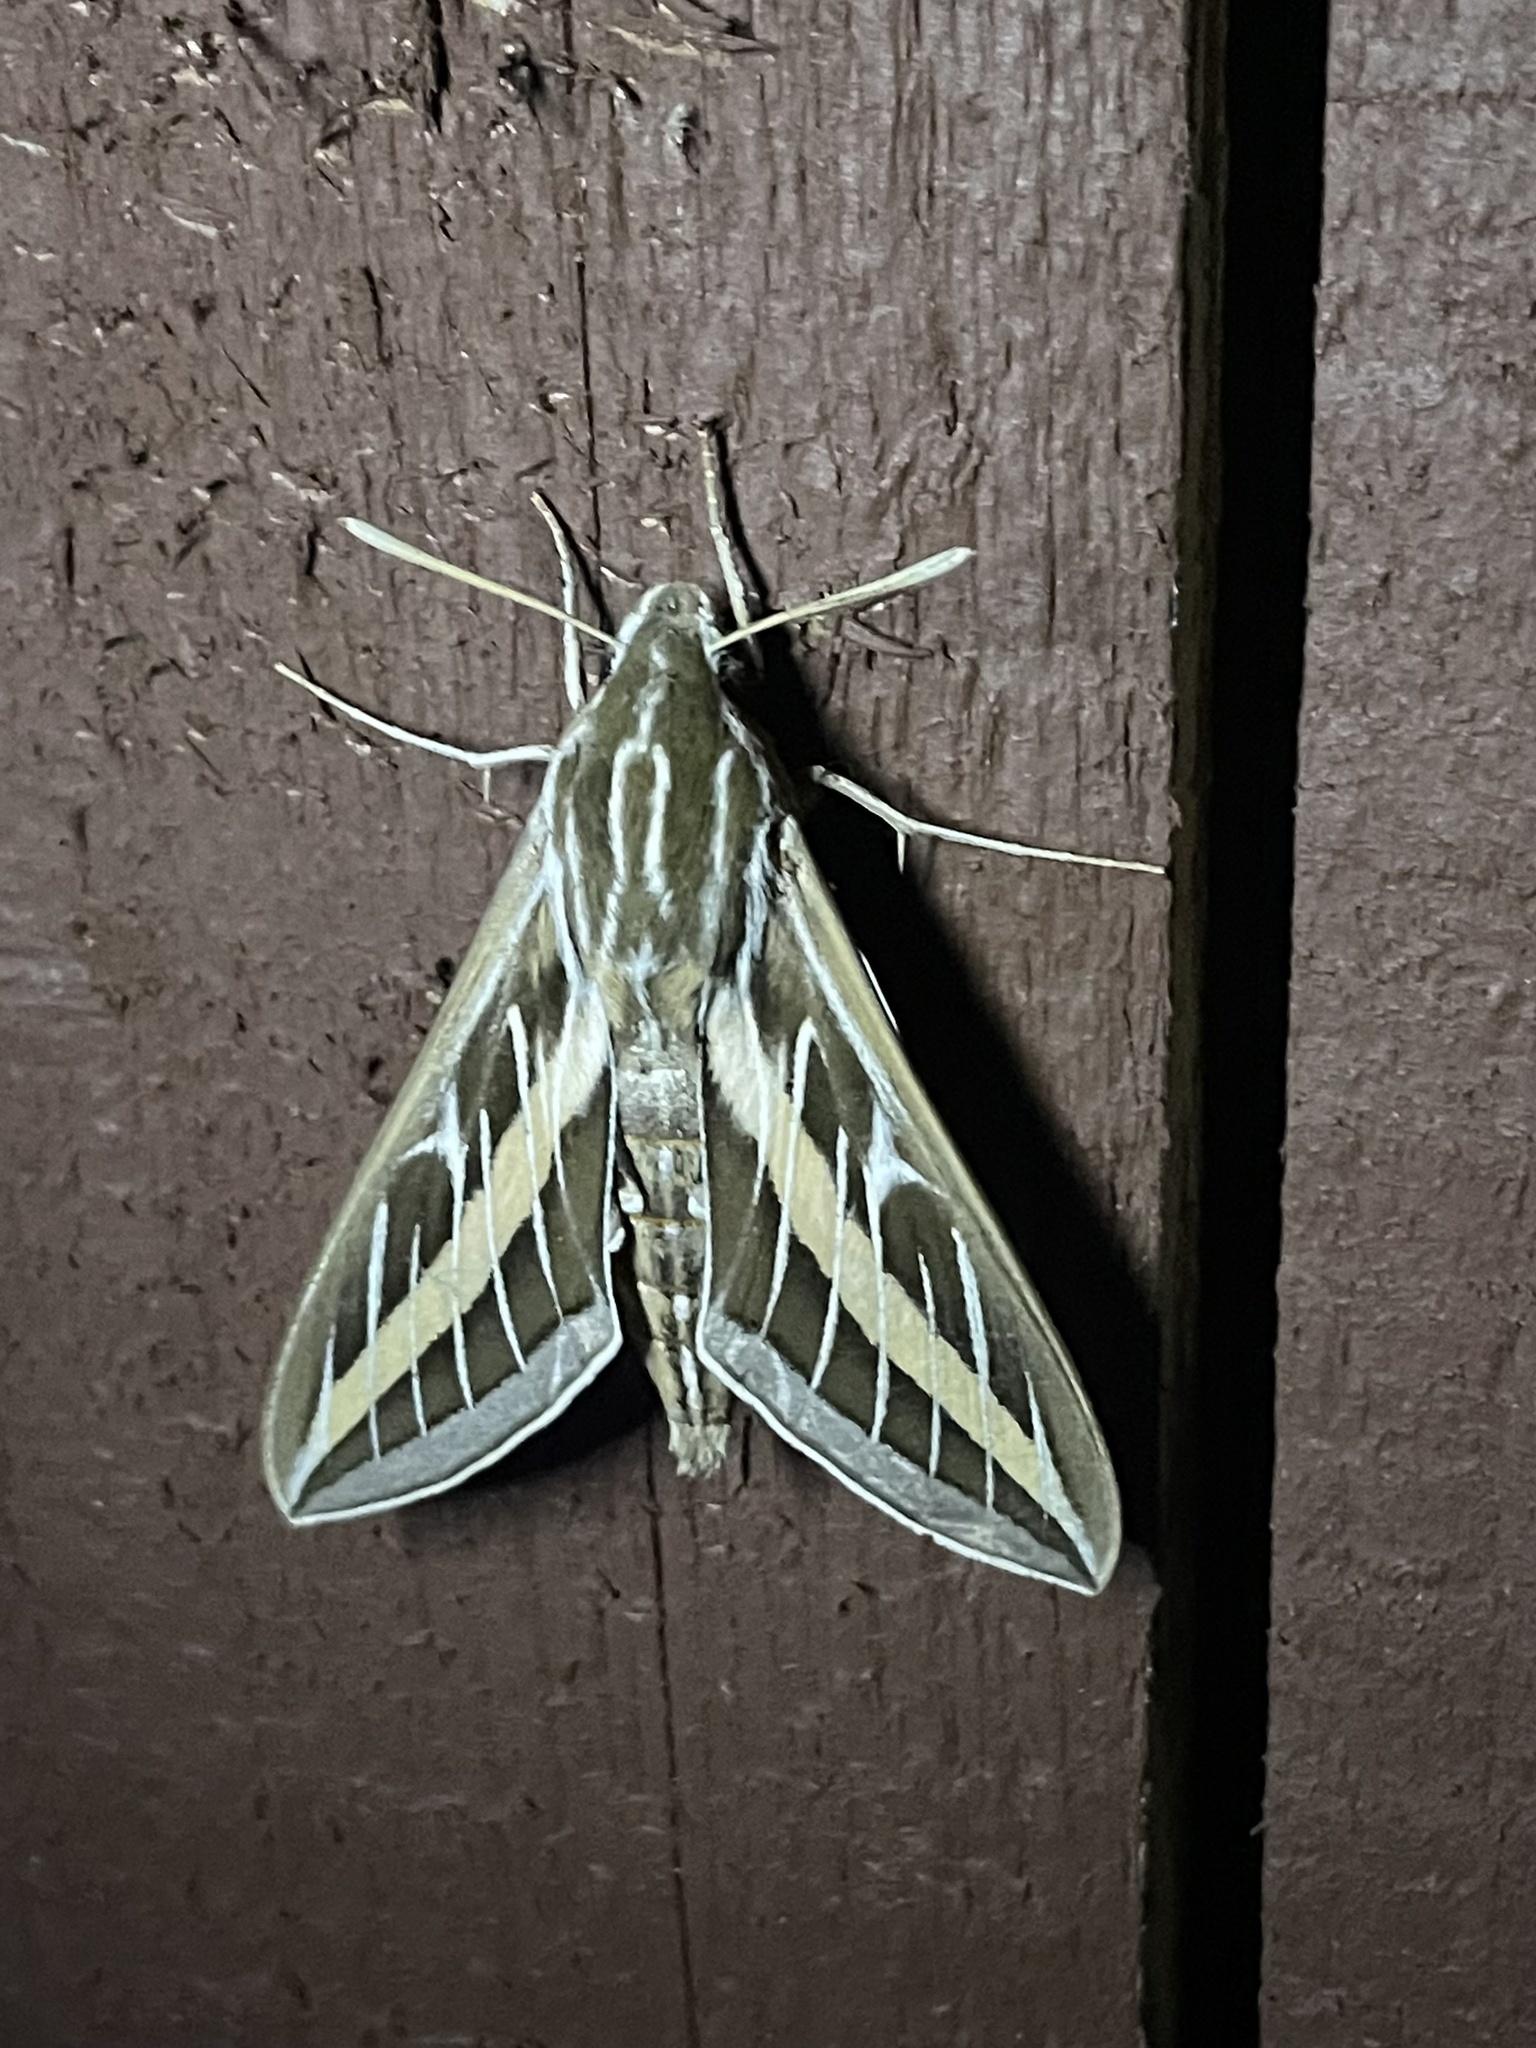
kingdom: Animalia
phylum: Arthropoda
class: Insecta
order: Lepidoptera
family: Sphingidae
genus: Hyles
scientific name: Hyles lineata
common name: White-lined sphinx
